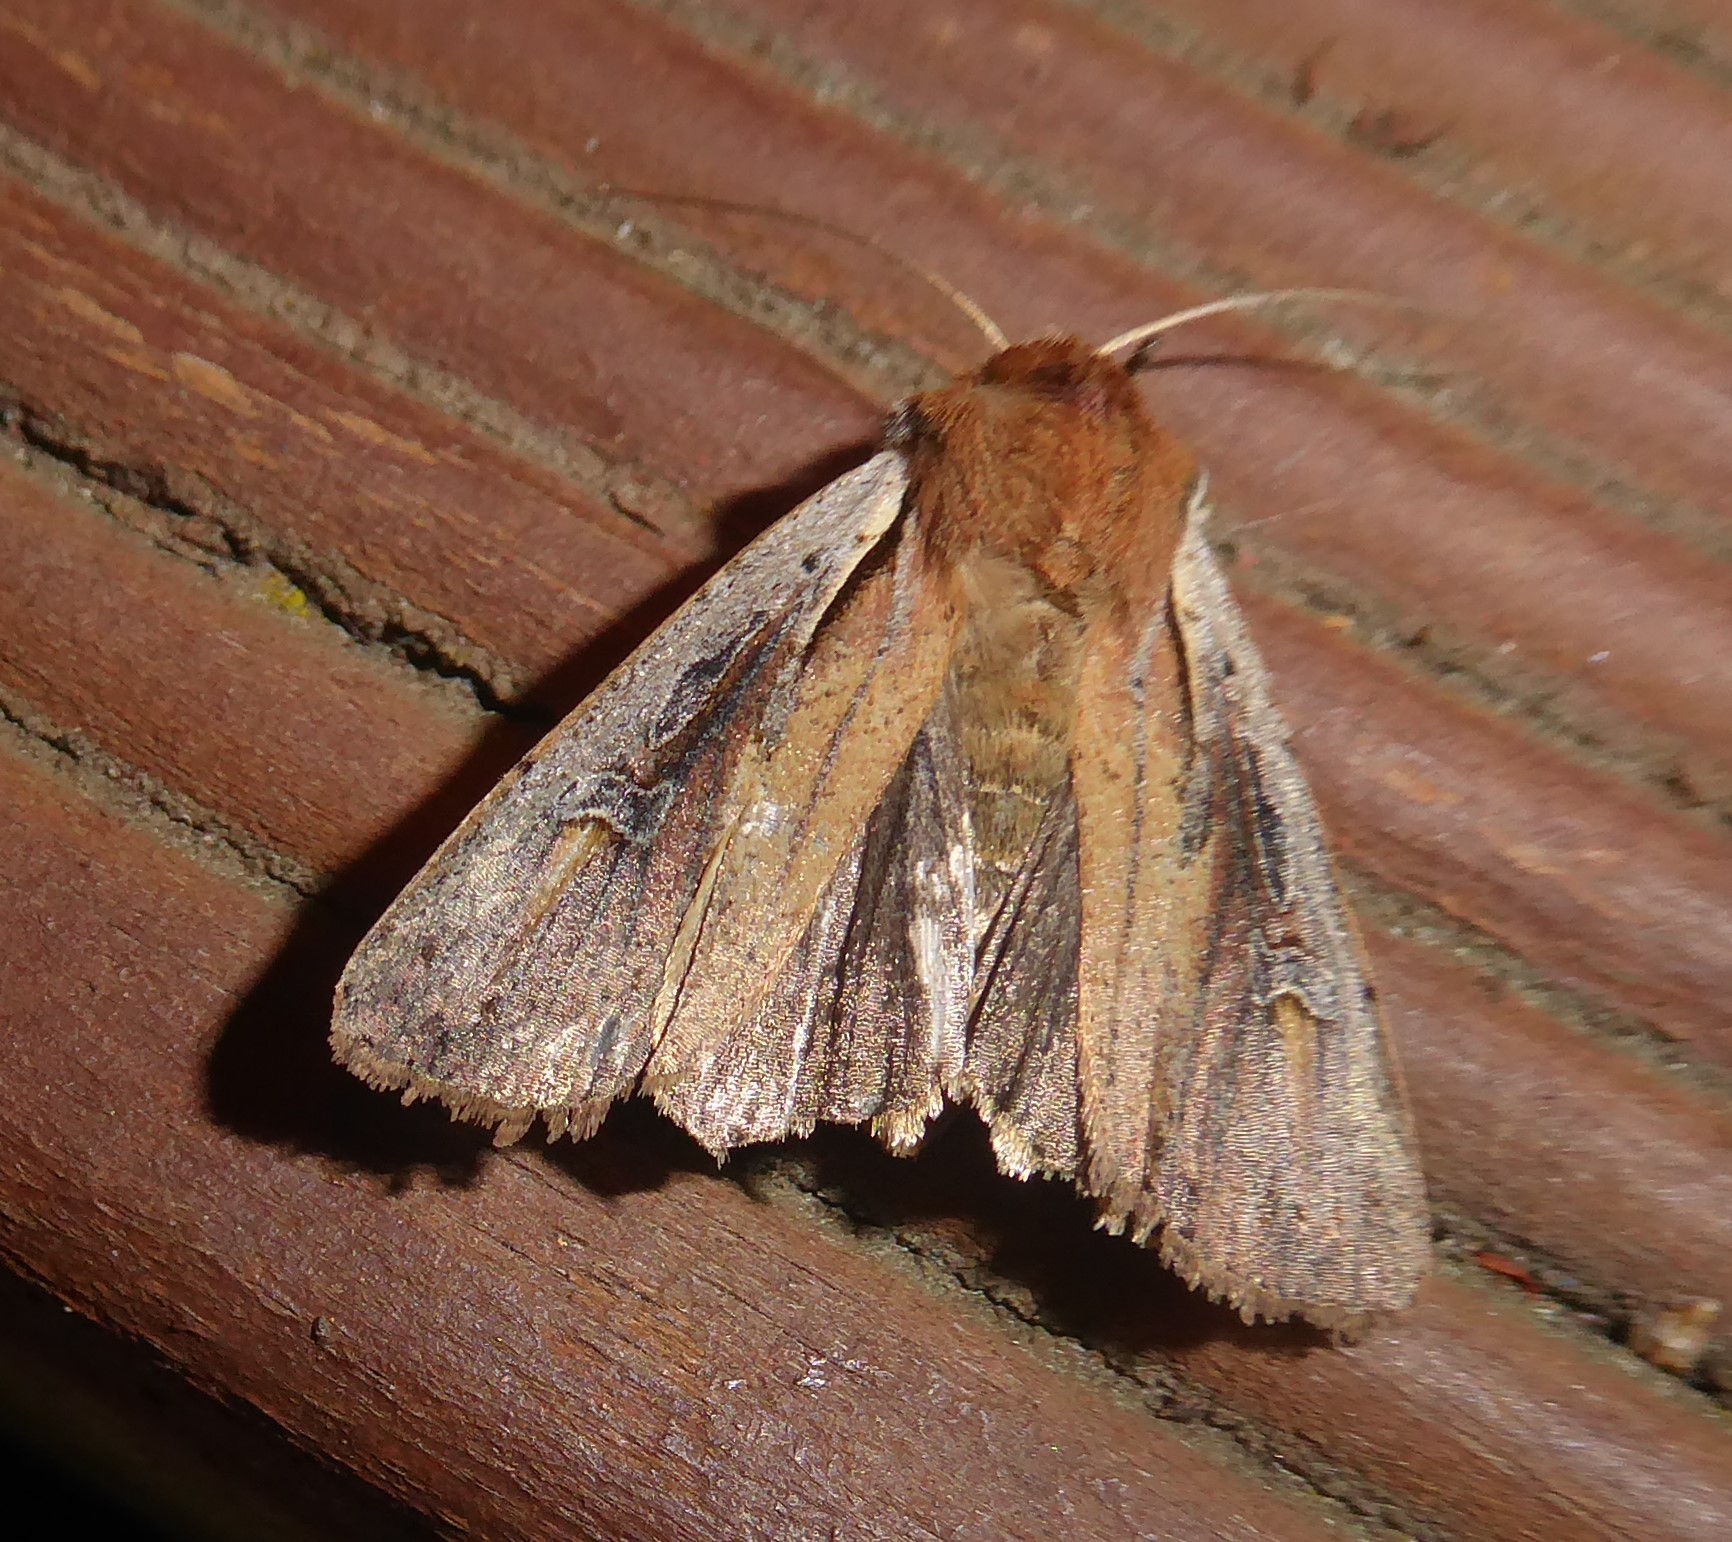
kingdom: Animalia
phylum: Arthropoda
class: Insecta
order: Lepidoptera
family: Noctuidae
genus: Ichneutica
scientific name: Ichneutica atristriga
